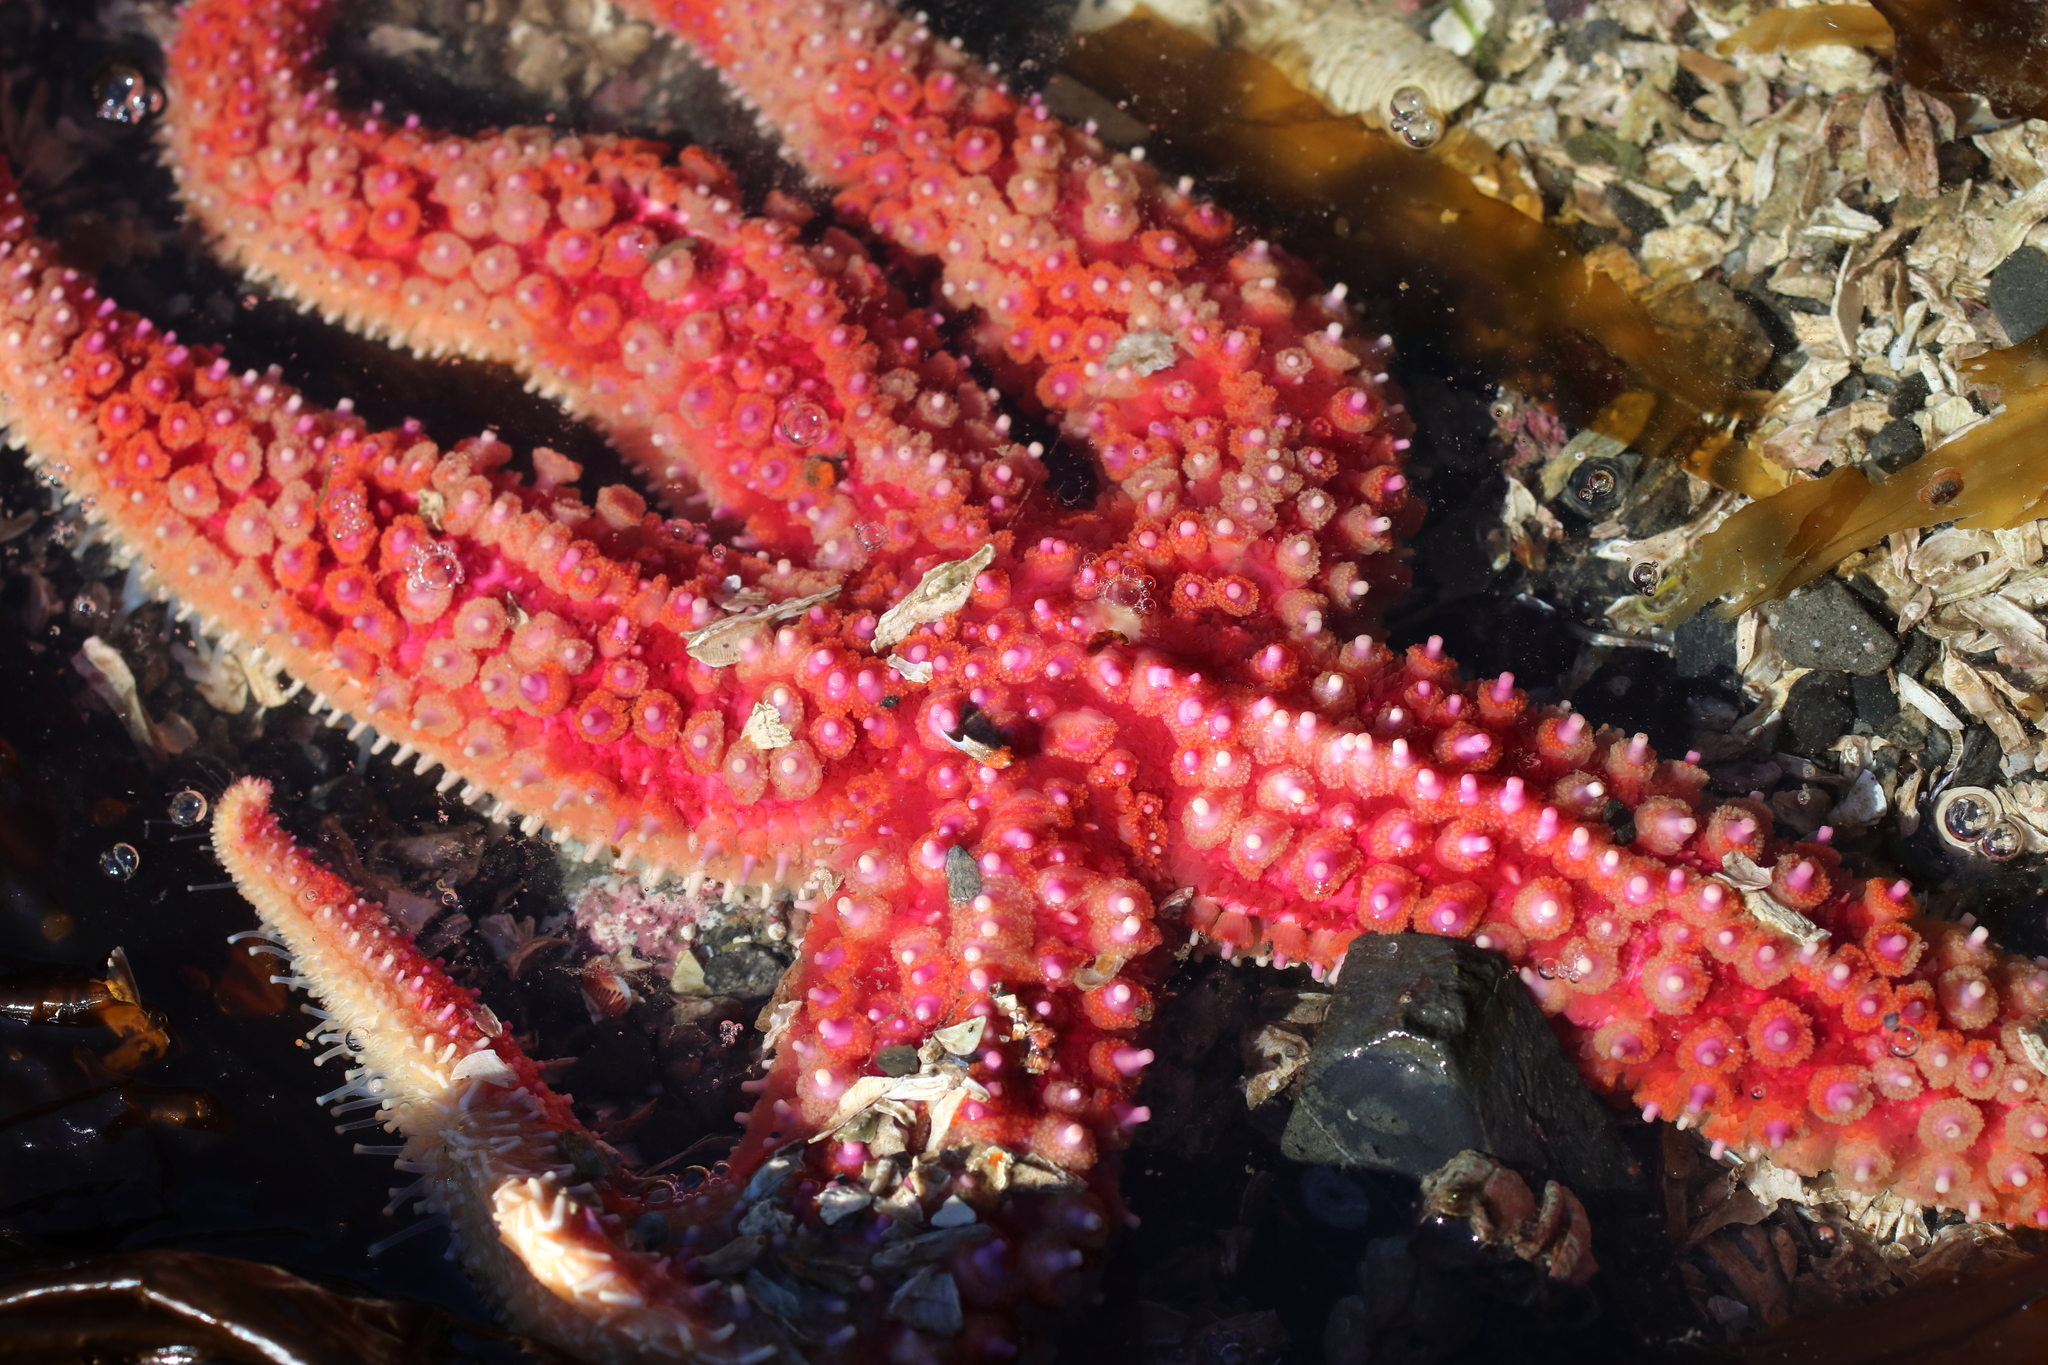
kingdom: Animalia
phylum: Echinodermata
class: Asteroidea
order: Forcipulatida
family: Asteriidae
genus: Orthasterias
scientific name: Orthasterias koehleri
